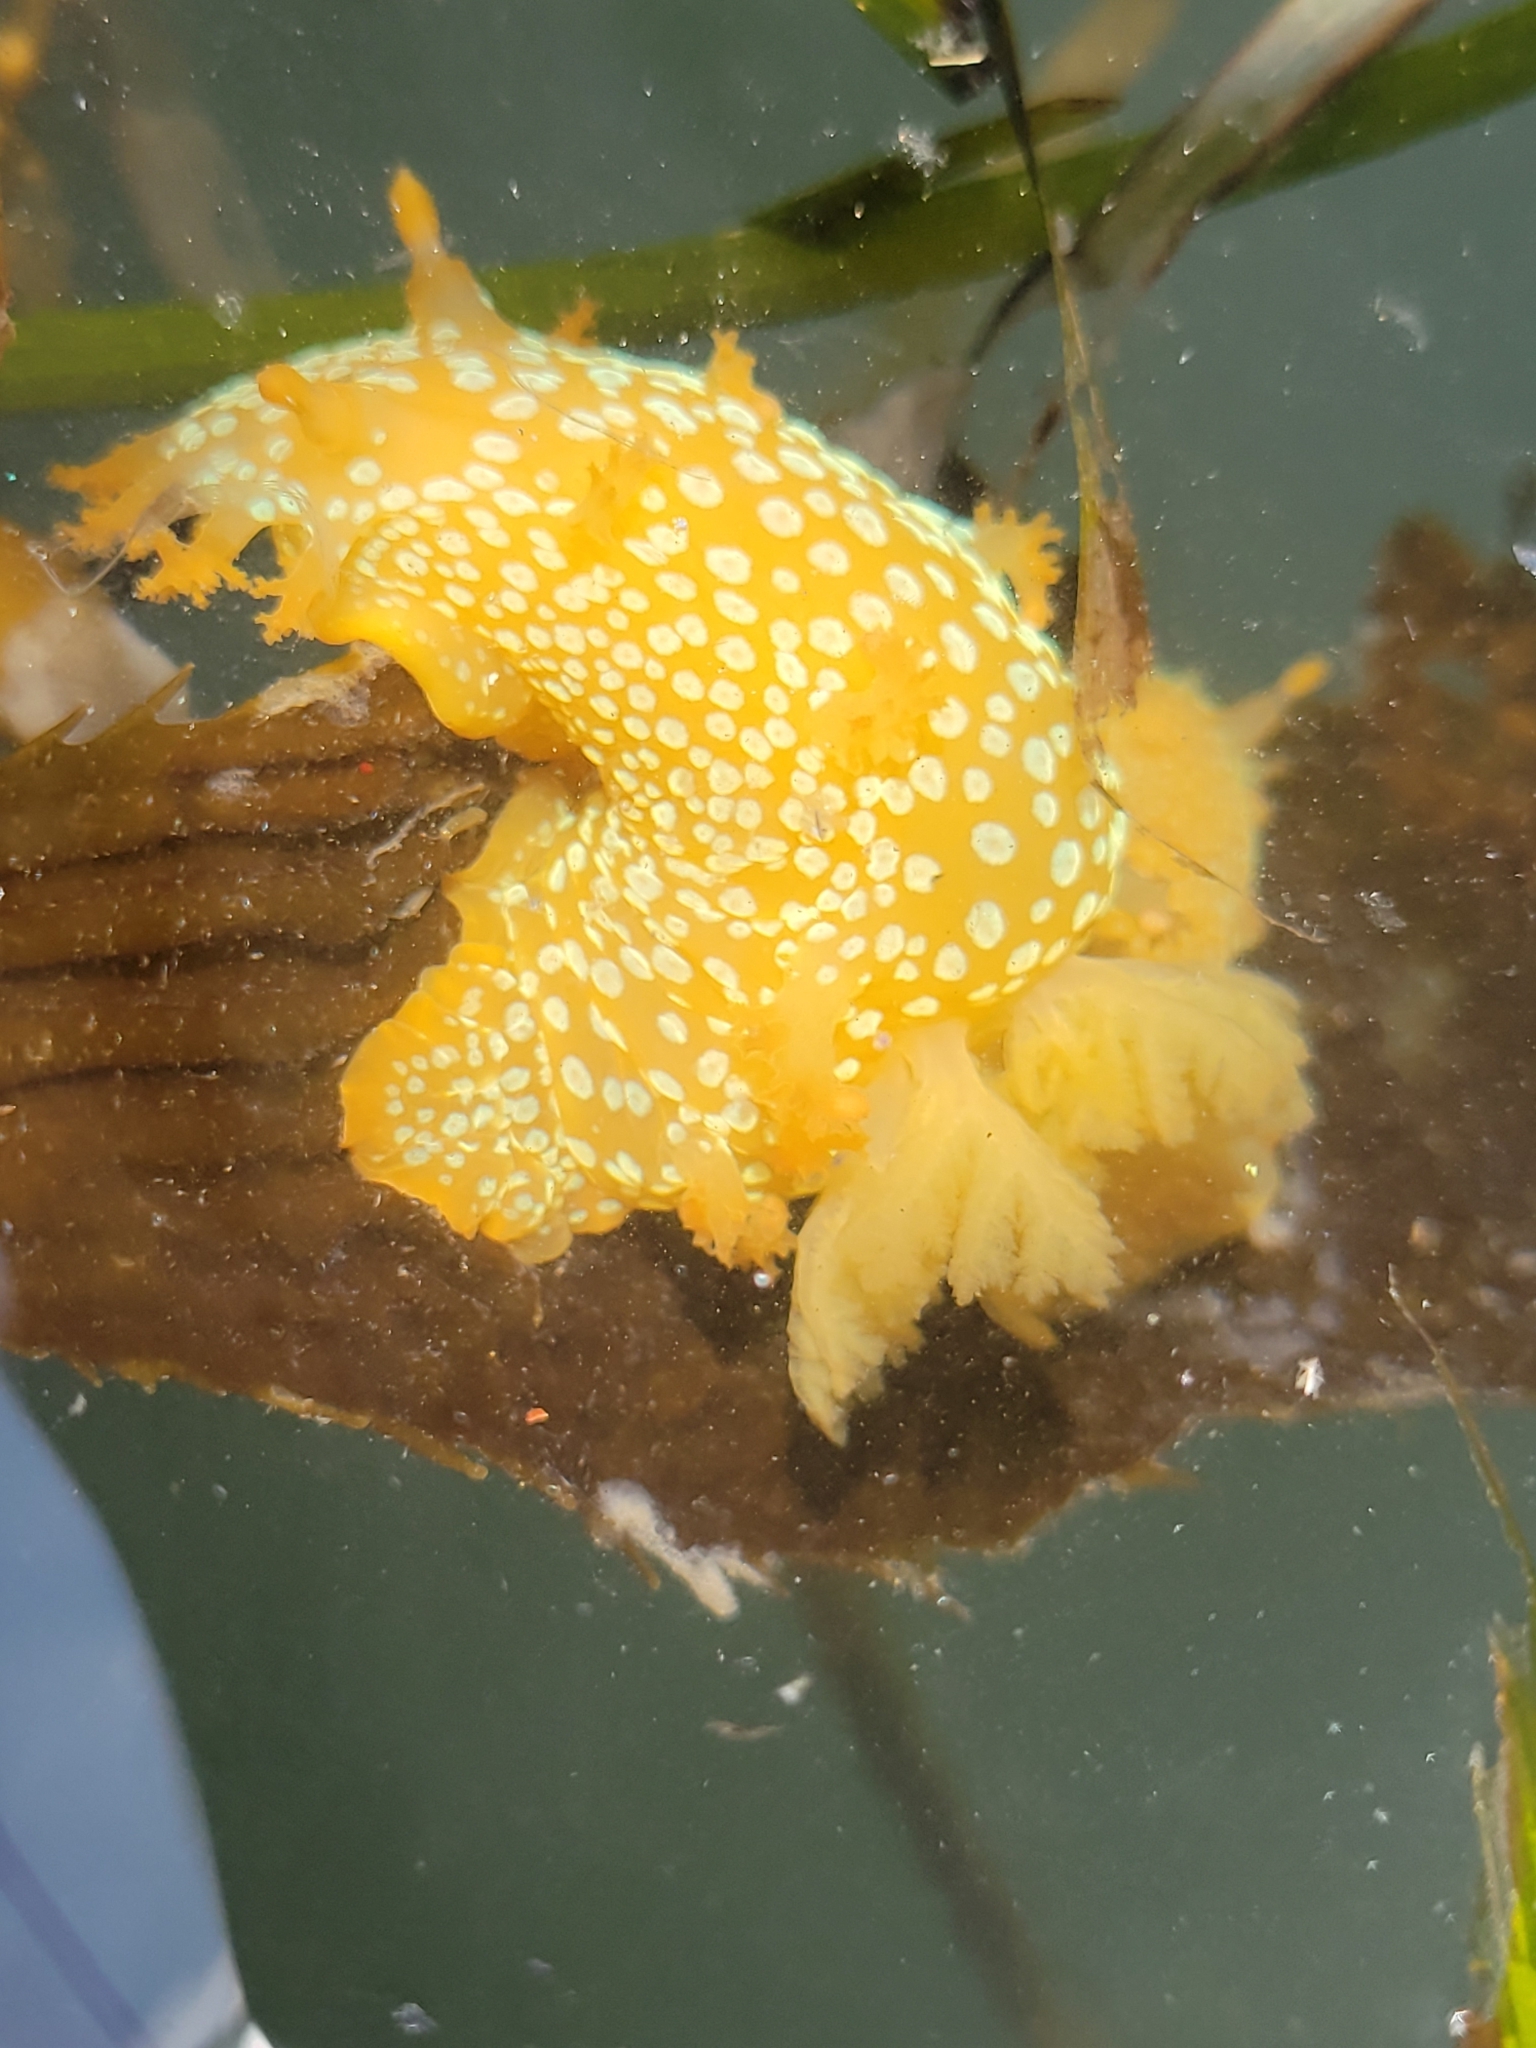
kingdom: Animalia
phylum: Mollusca
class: Gastropoda
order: Nudibranchia
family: Polyceridae
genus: Triopha
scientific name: Triopha maculata
